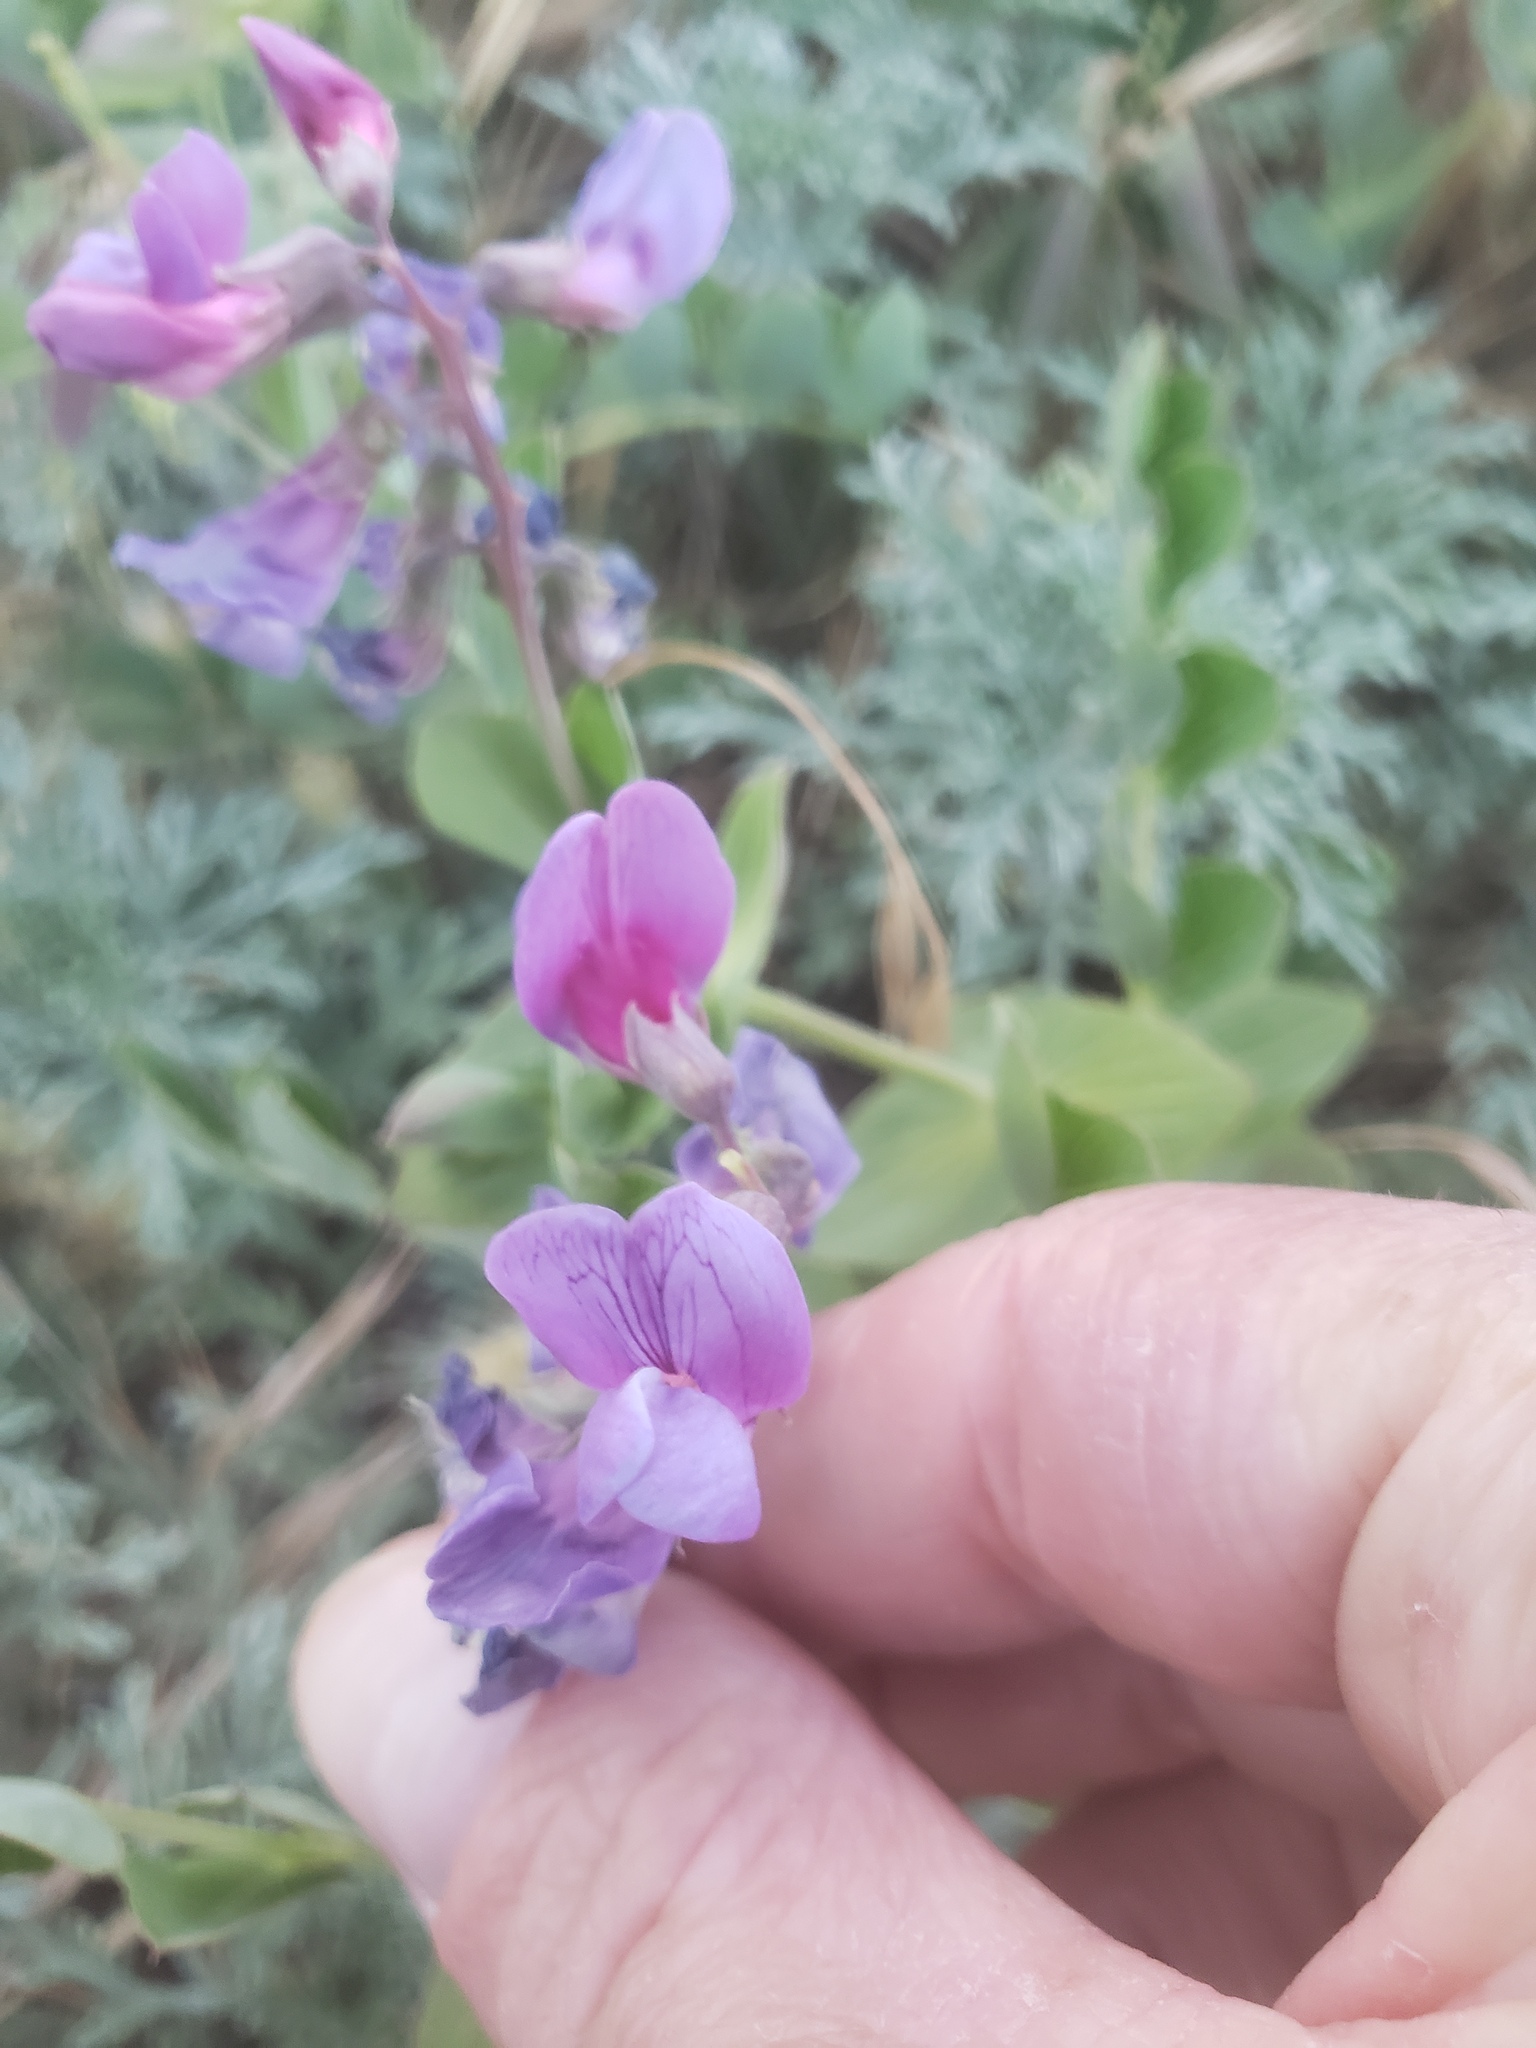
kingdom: Plantae
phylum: Tracheophyta
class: Magnoliopsida
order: Fabales
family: Fabaceae
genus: Lathyrus
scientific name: Lathyrus japonicus
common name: Sea pea
